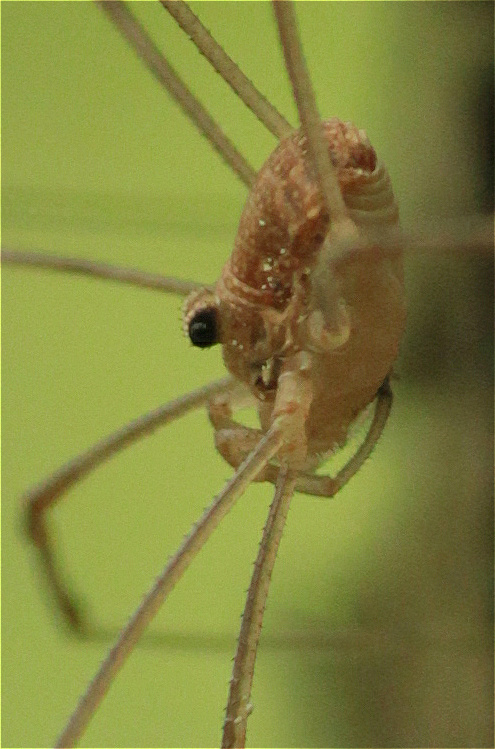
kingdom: Animalia
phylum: Arthropoda
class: Arachnida
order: Opiliones
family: Phalangiidae
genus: Rilaena
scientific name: Rilaena triangularis
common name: Spring harvestman
